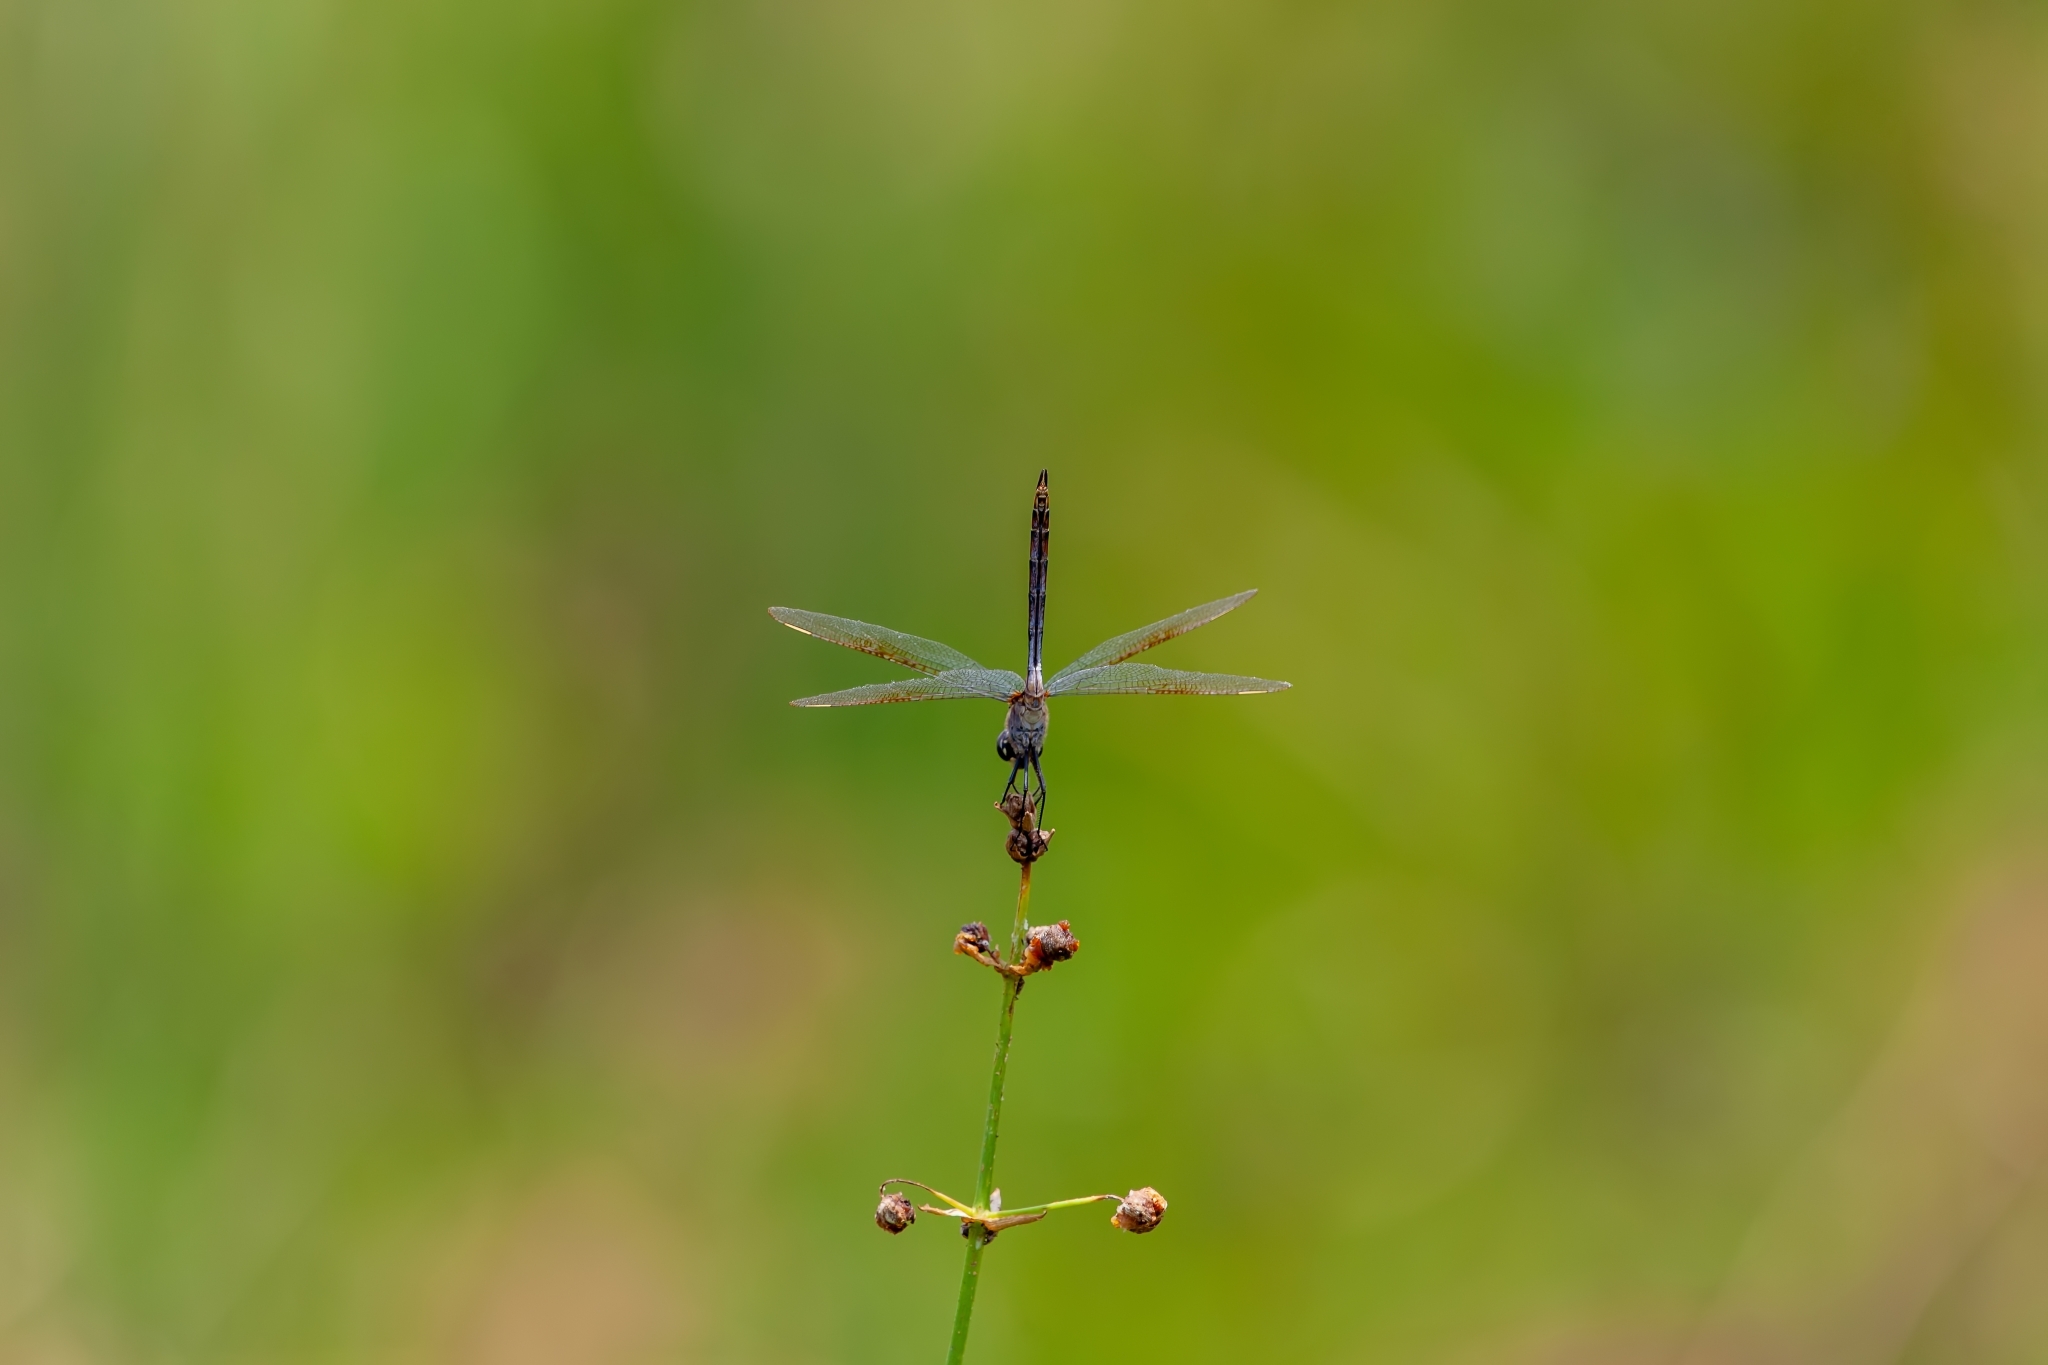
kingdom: Animalia
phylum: Arthropoda
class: Insecta
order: Odonata
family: Libellulidae
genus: Brachymesia
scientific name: Brachymesia gravida
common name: Four-spotted pennant
